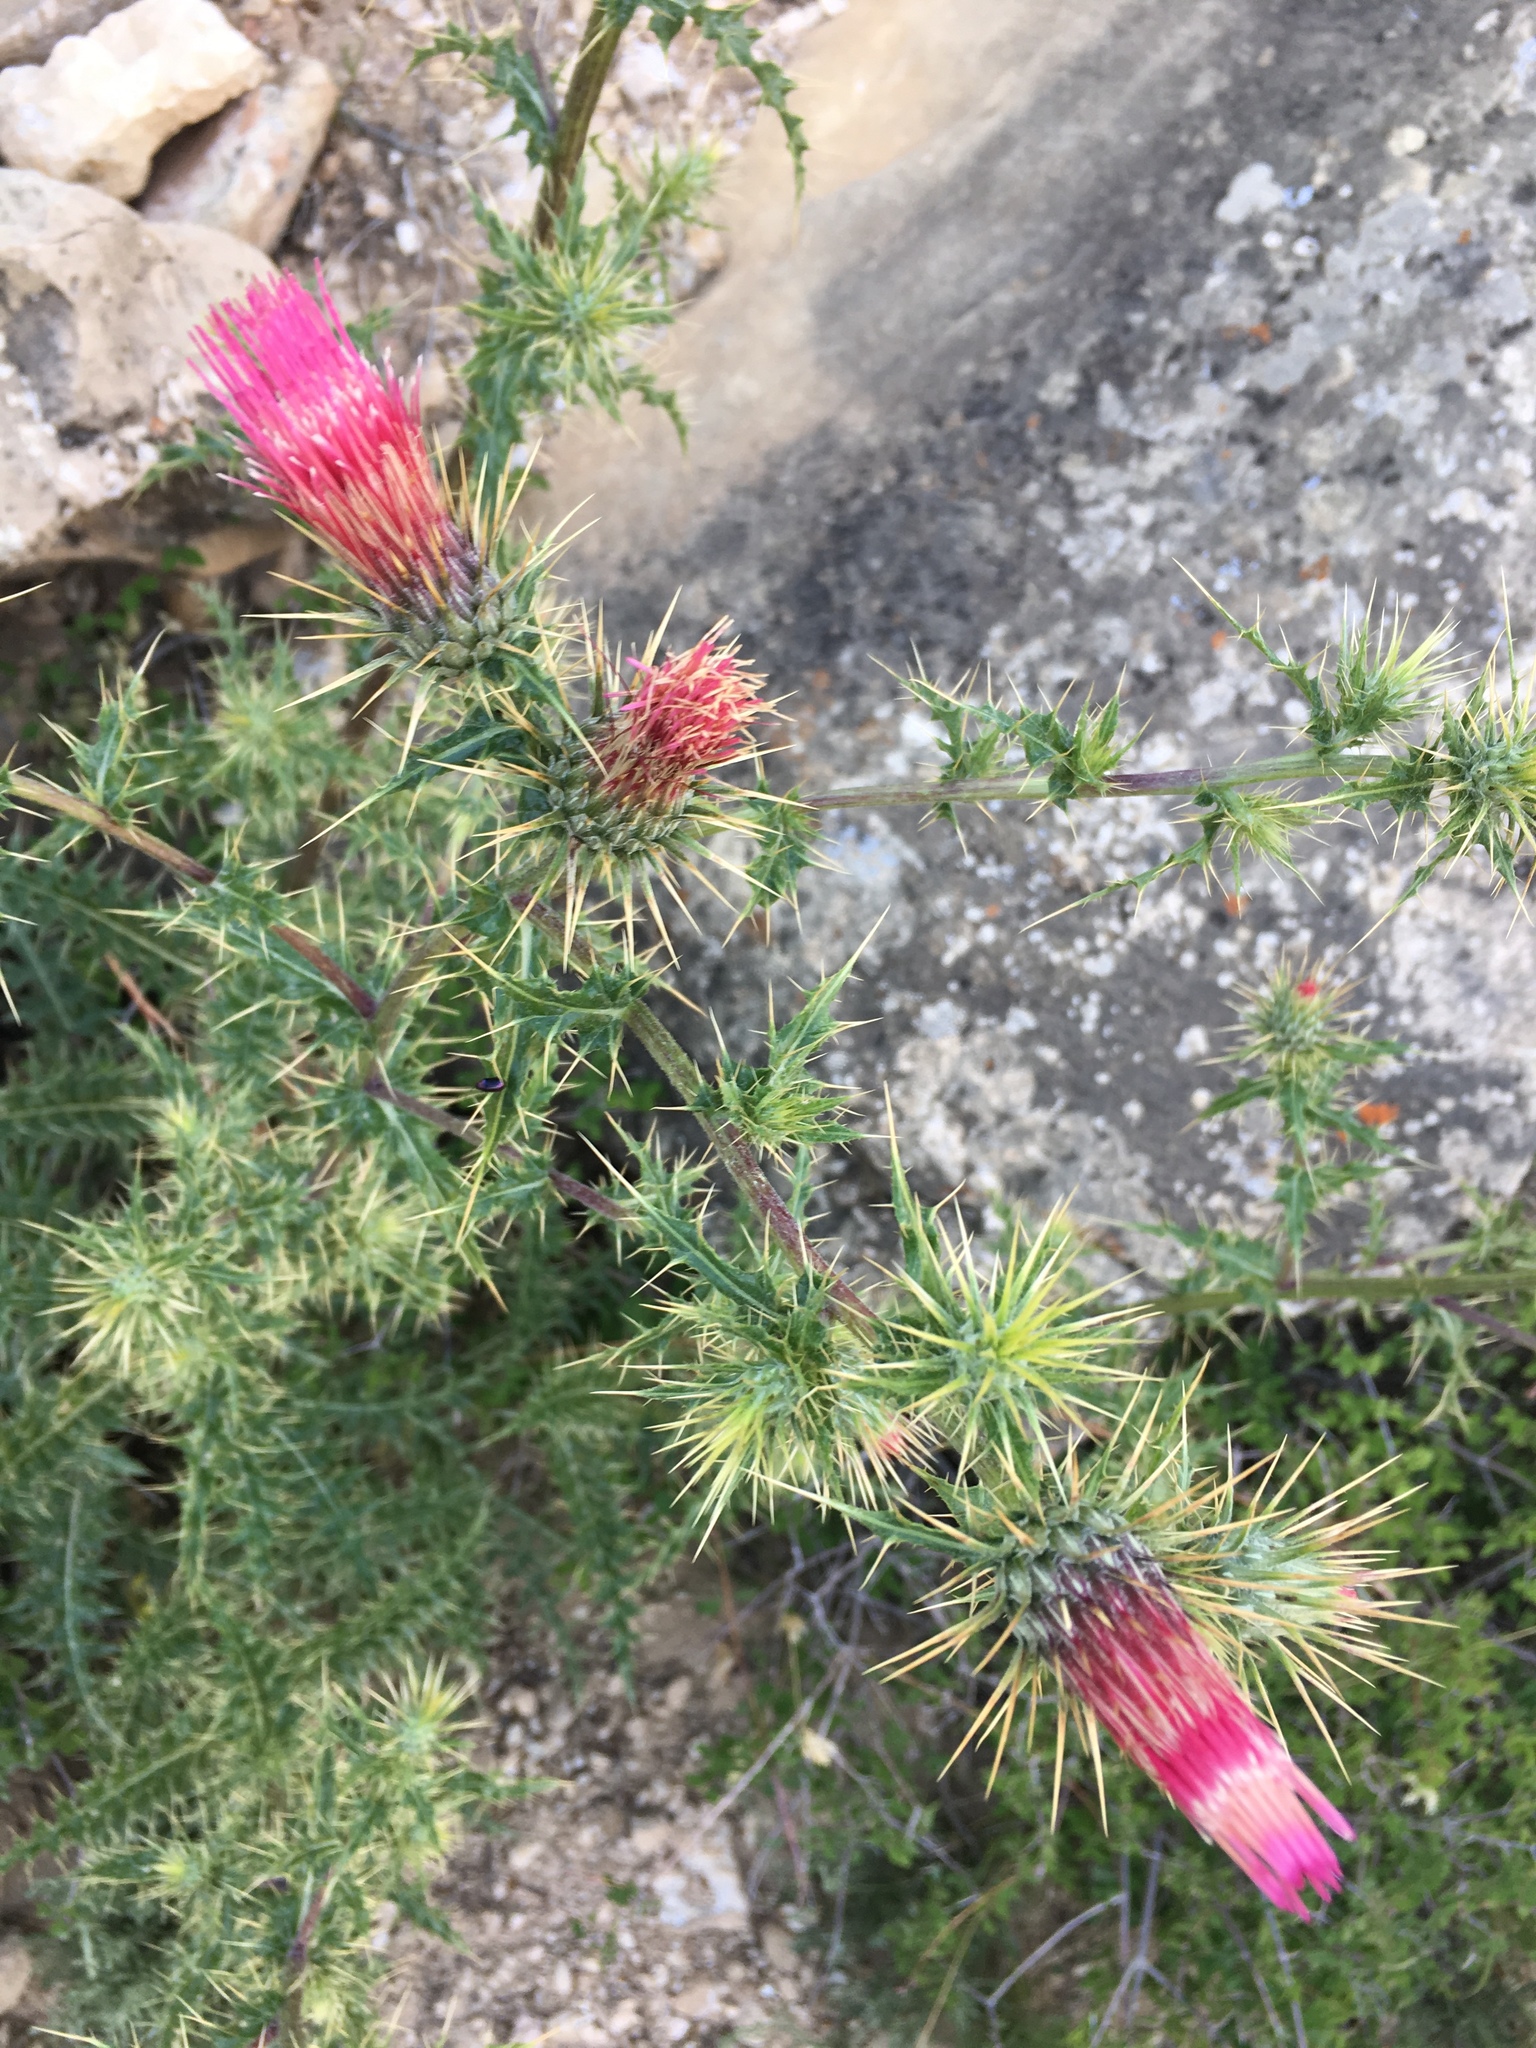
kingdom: Plantae
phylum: Tracheophyta
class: Magnoliopsida
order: Asterales
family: Asteraceae
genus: Cirsium
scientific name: Cirsium arizonicum
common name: Arizona thistle
